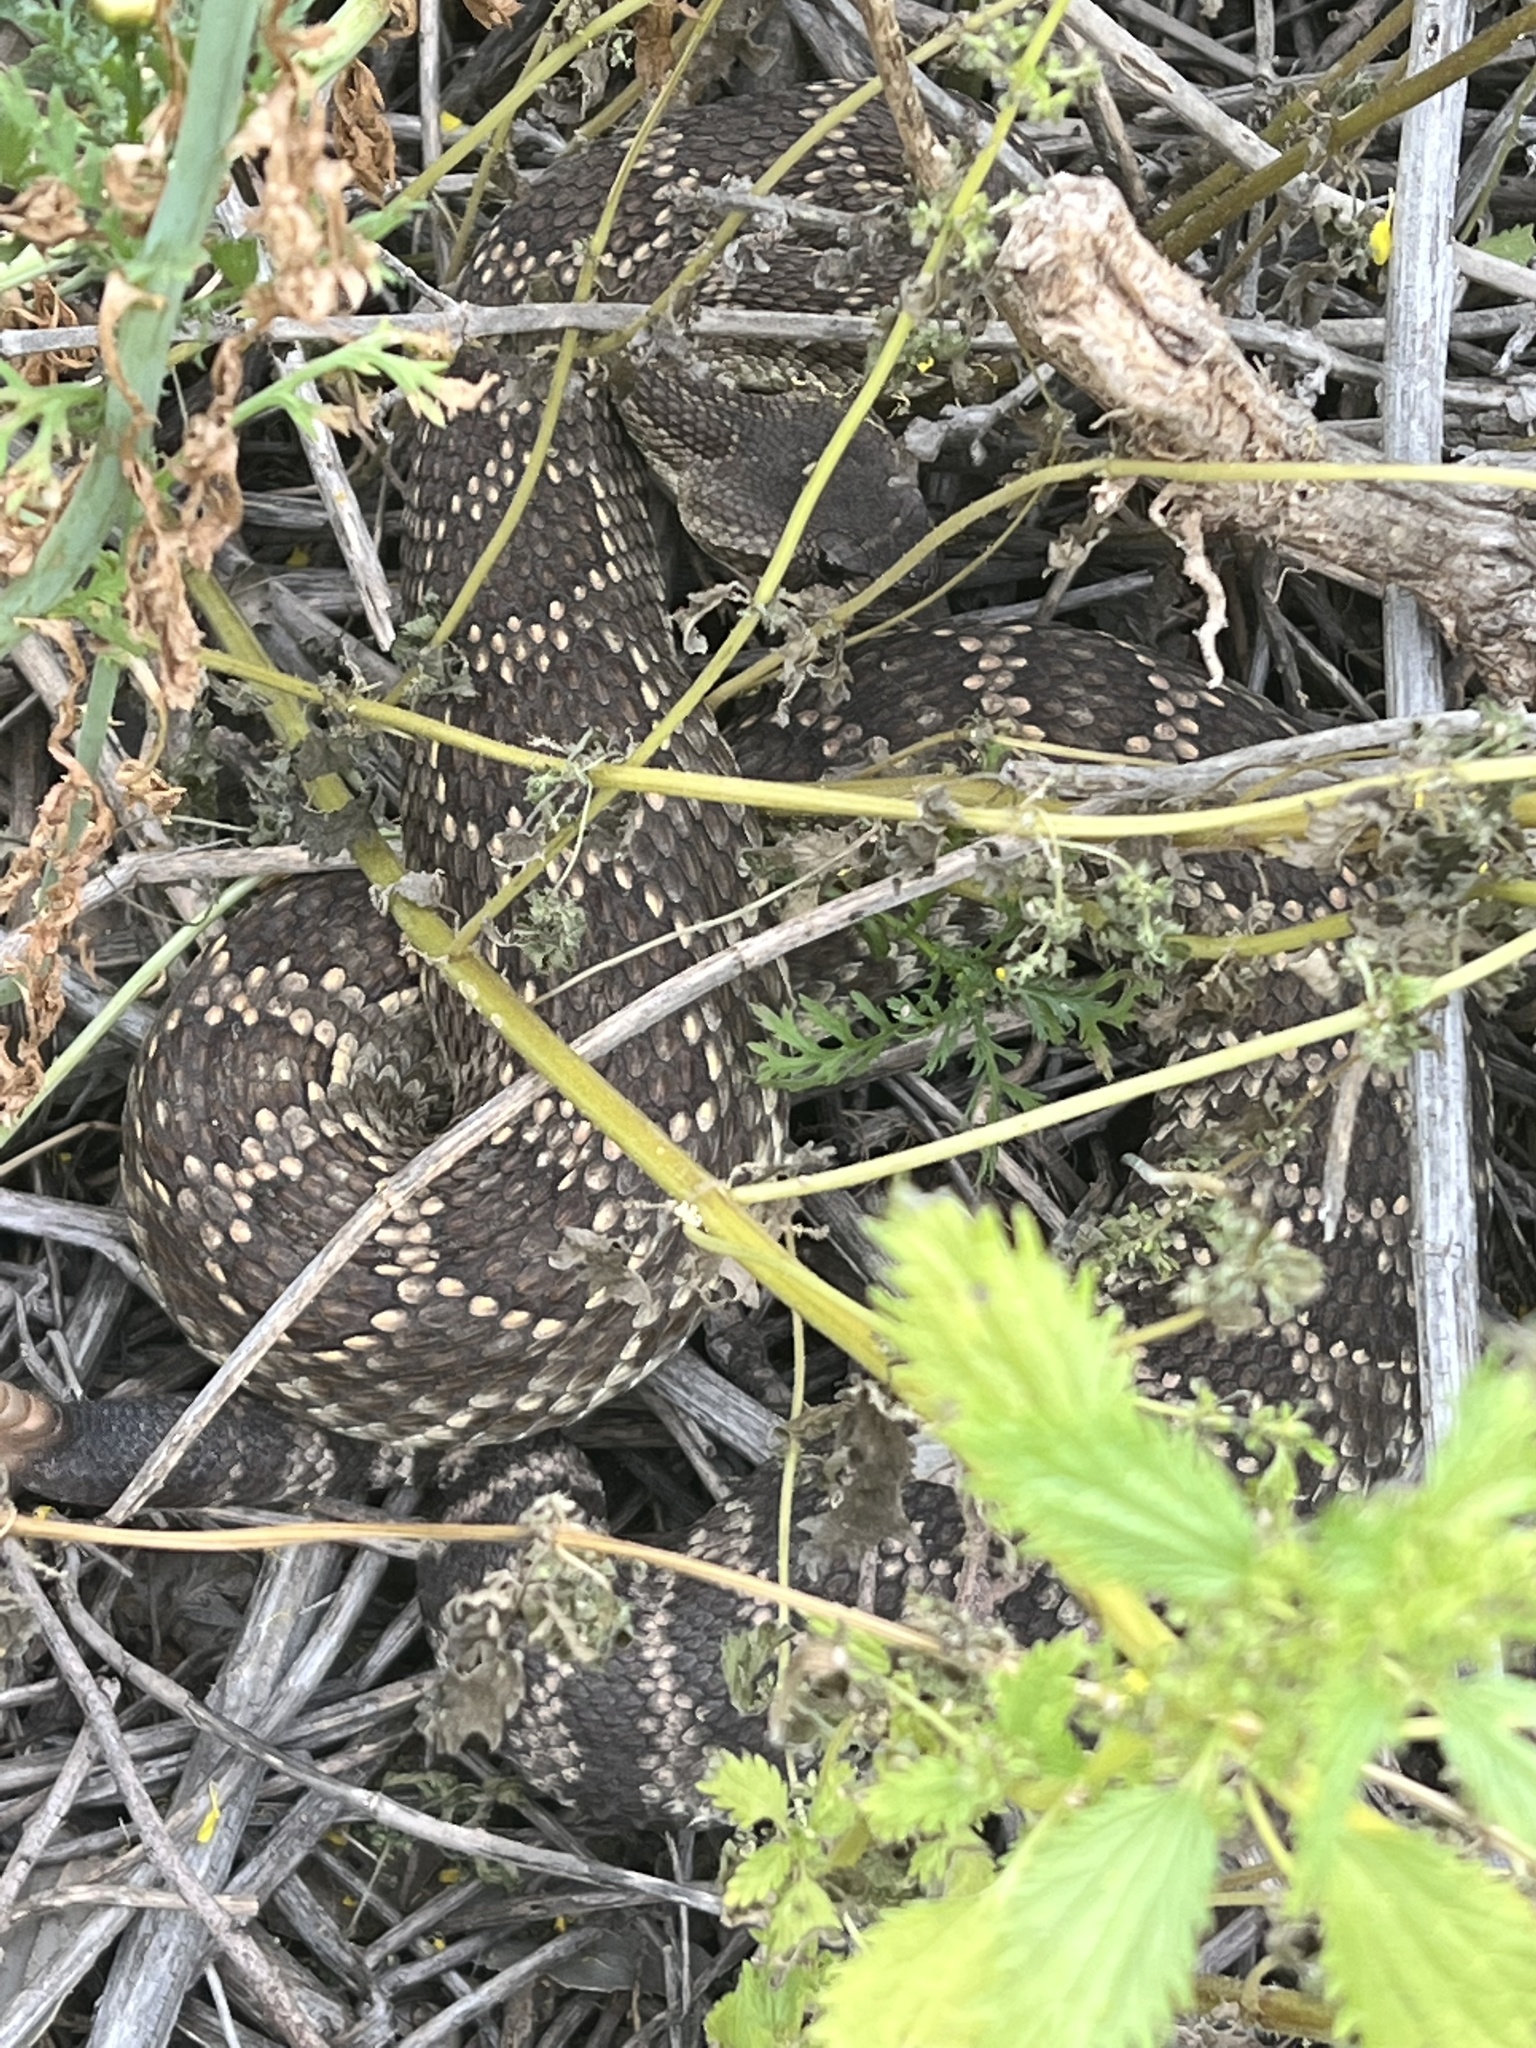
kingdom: Animalia
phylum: Chordata
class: Squamata
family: Viperidae
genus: Crotalus
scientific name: Crotalus oreganus
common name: Abyssus
